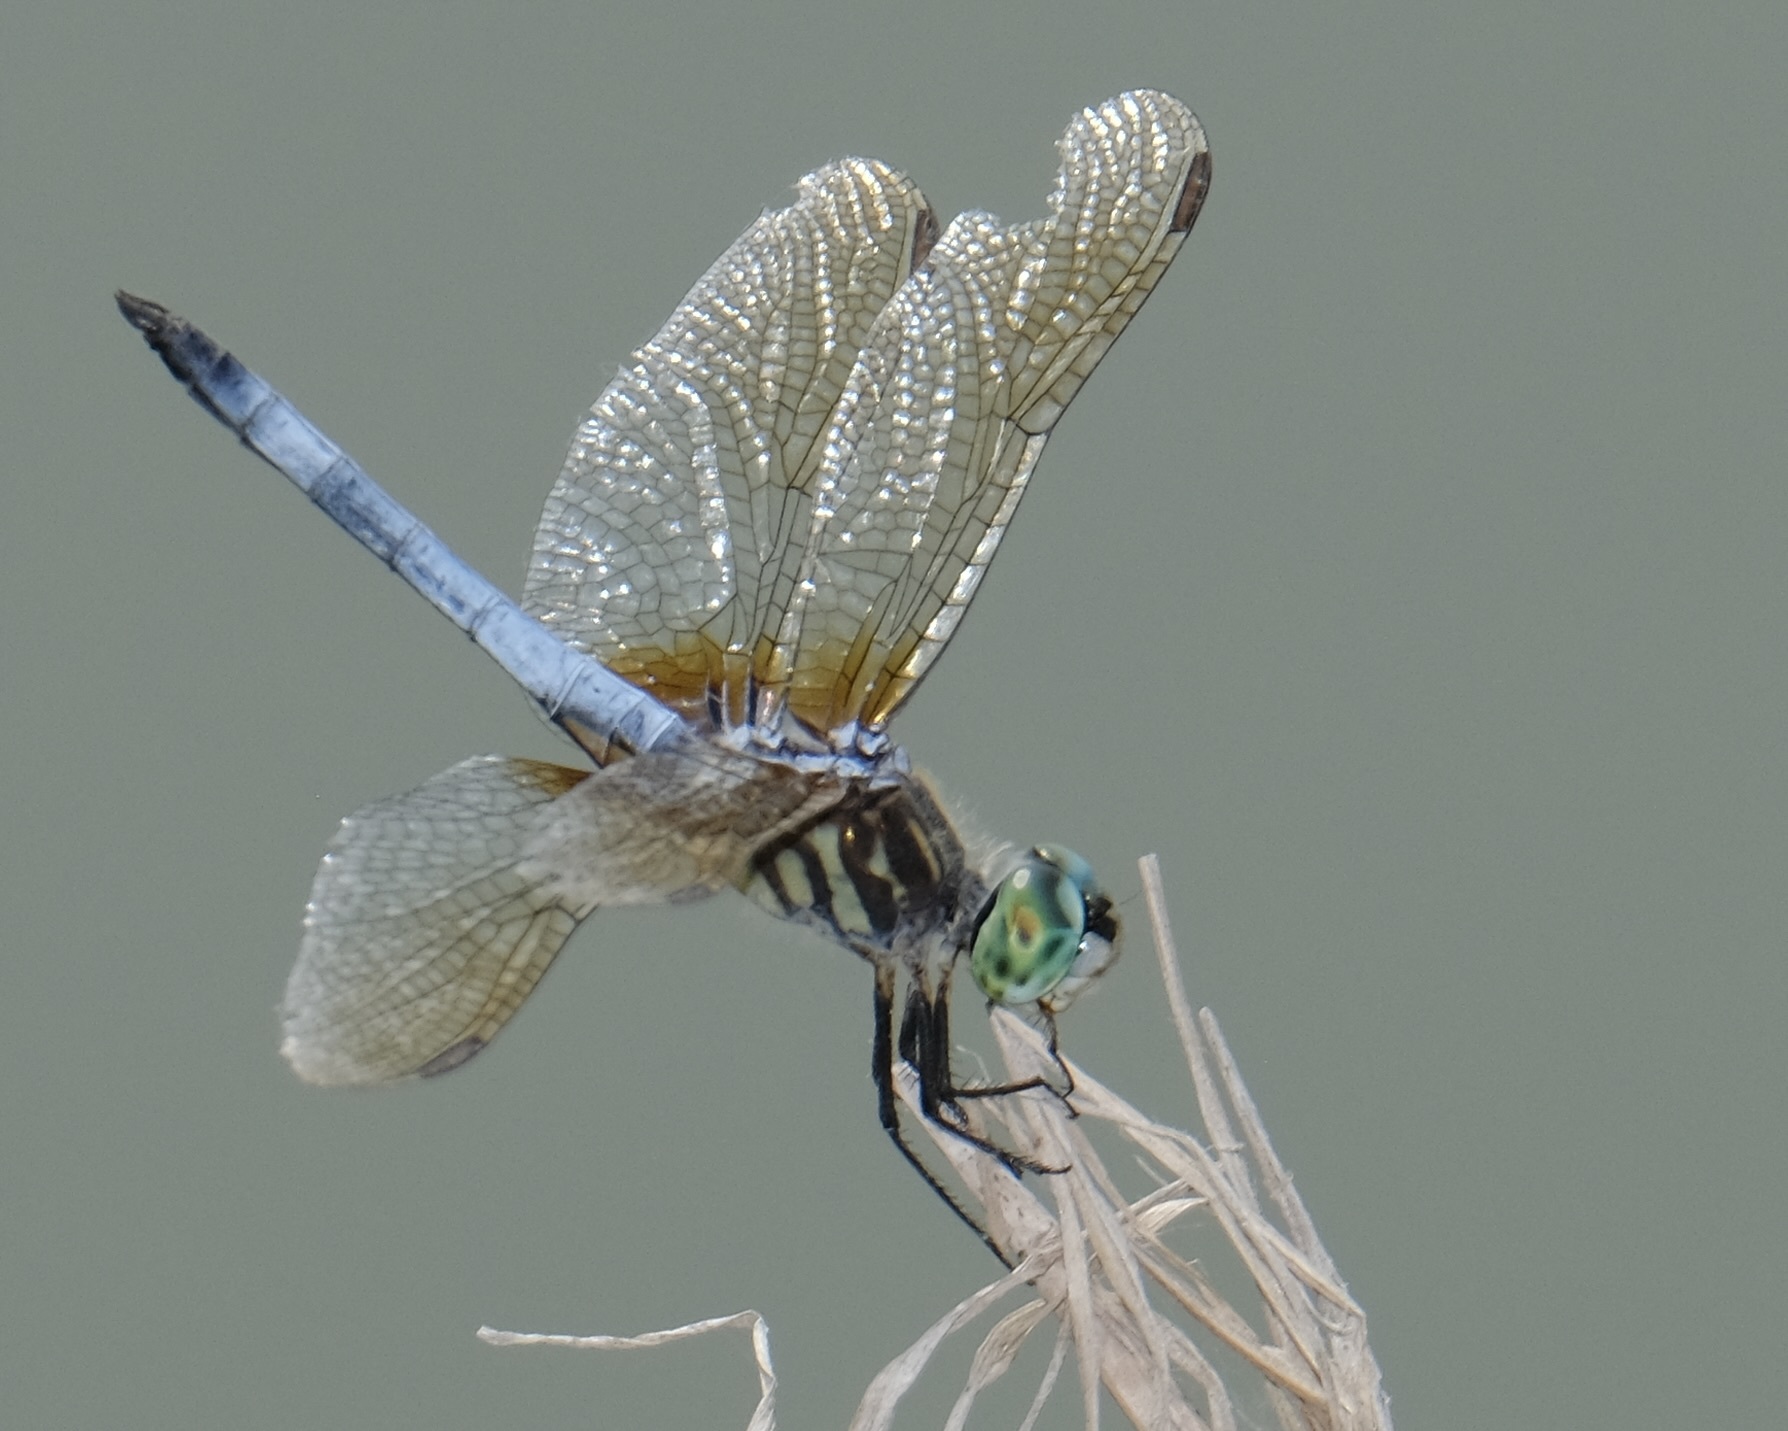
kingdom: Animalia
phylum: Arthropoda
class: Insecta
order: Odonata
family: Libellulidae
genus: Pachydiplax
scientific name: Pachydiplax longipennis
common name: Blue dasher
